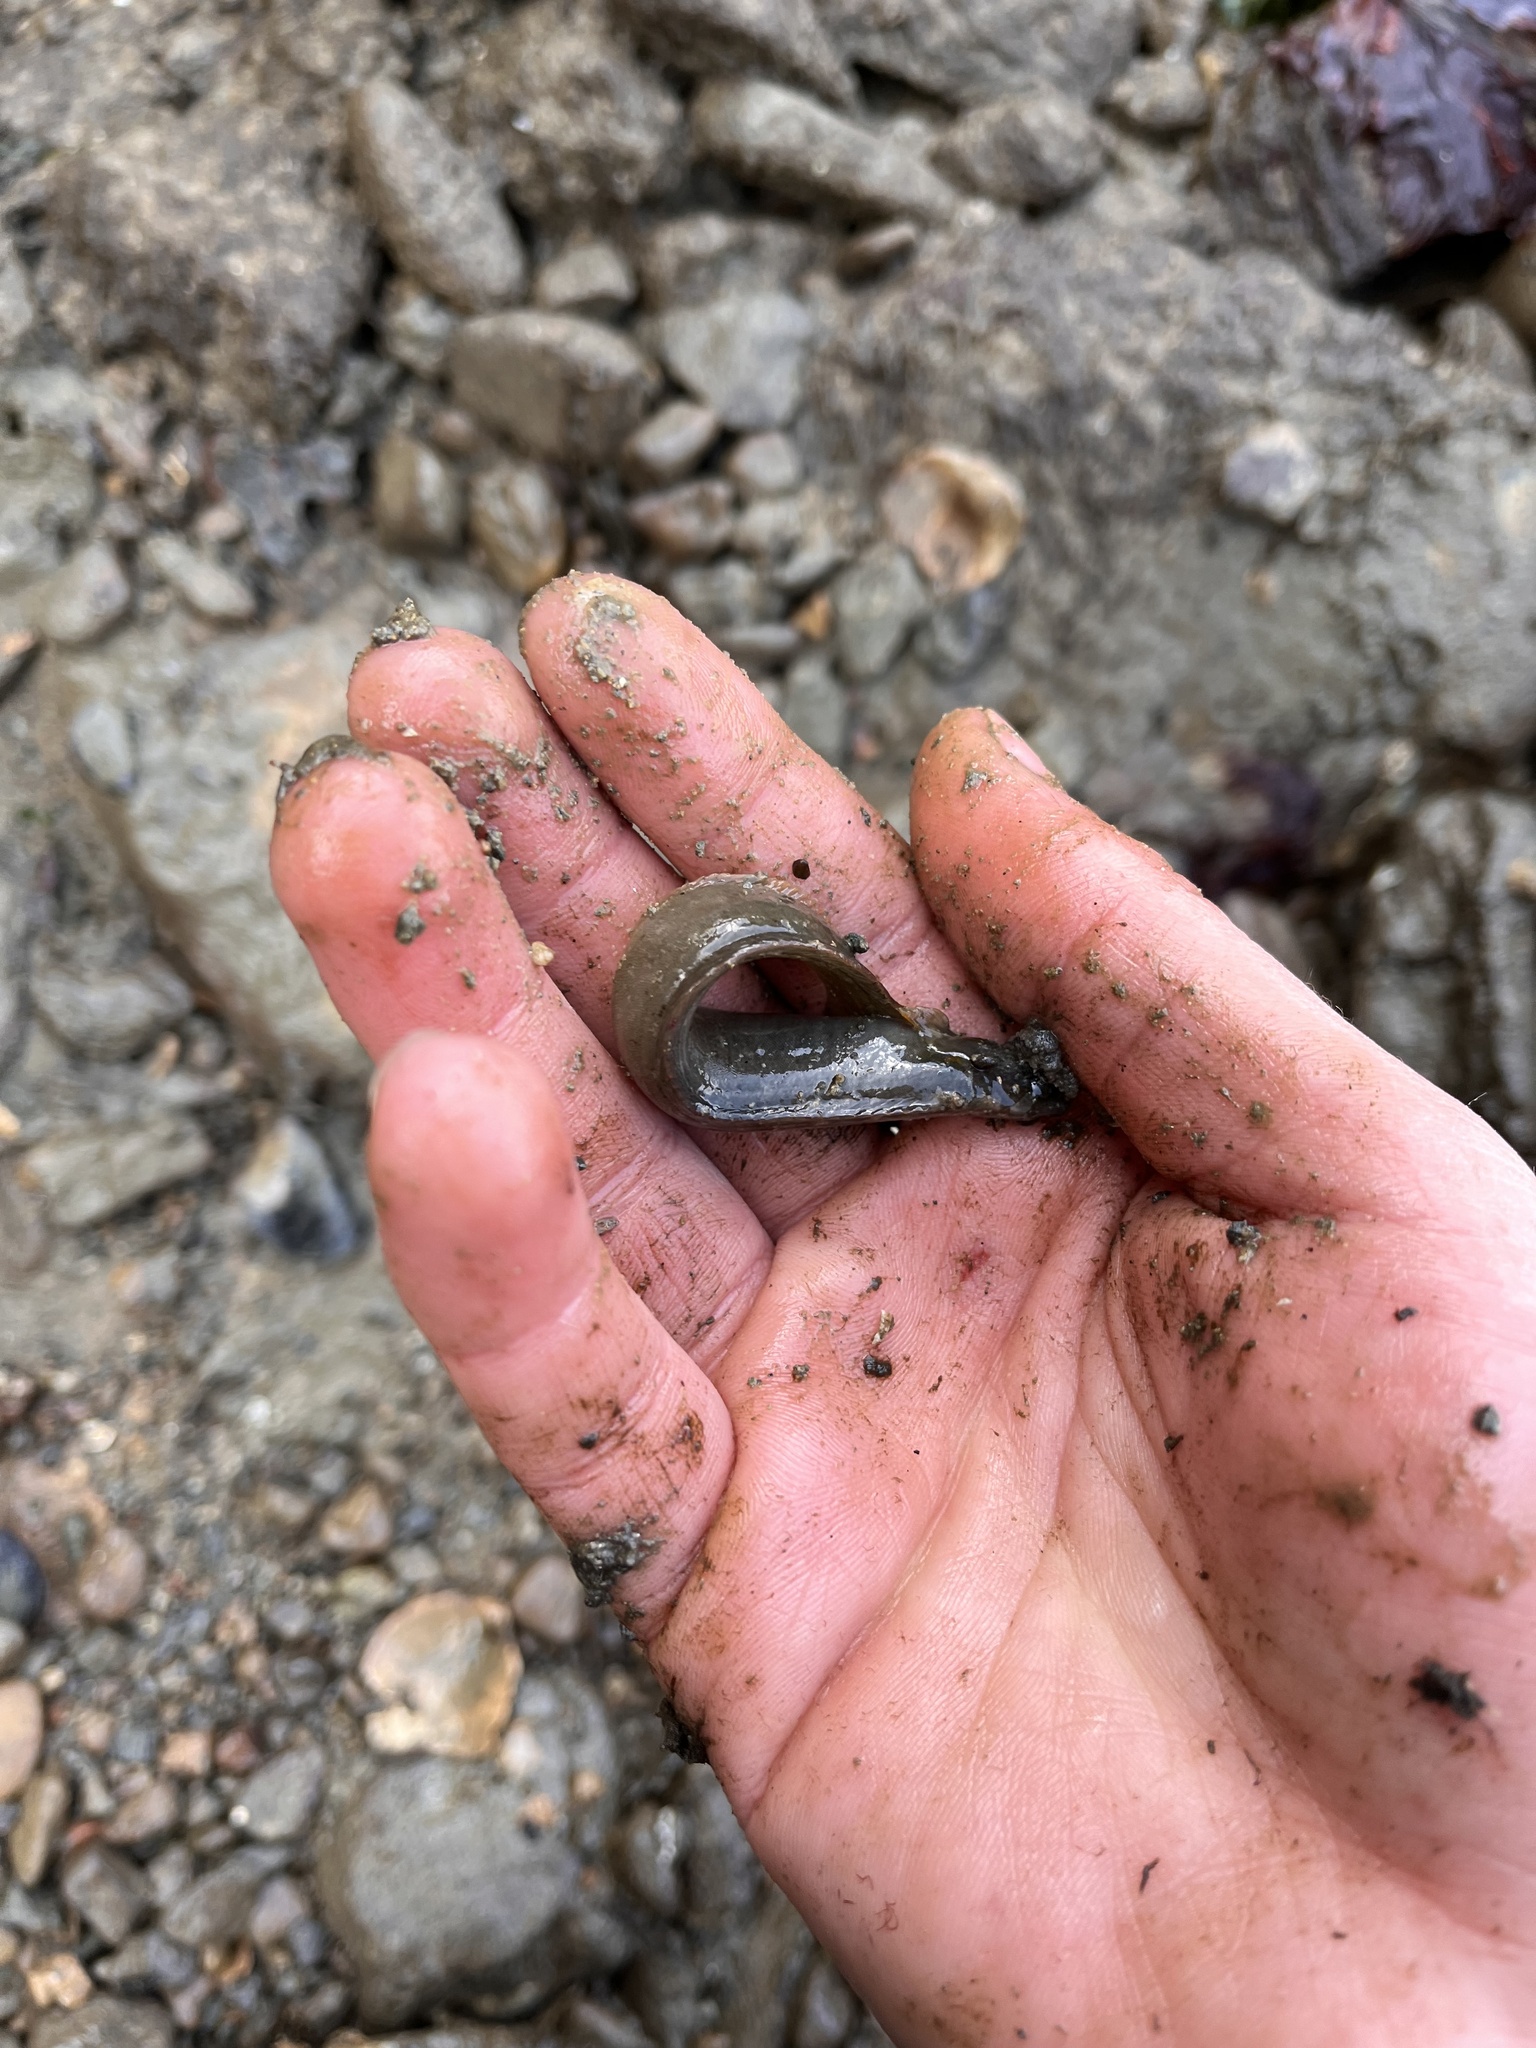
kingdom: Animalia
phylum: Chordata
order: Perciformes
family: Stichaeidae
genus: Cebidichthys
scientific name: Cebidichthys violaceus
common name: Monkeyface prickleback
